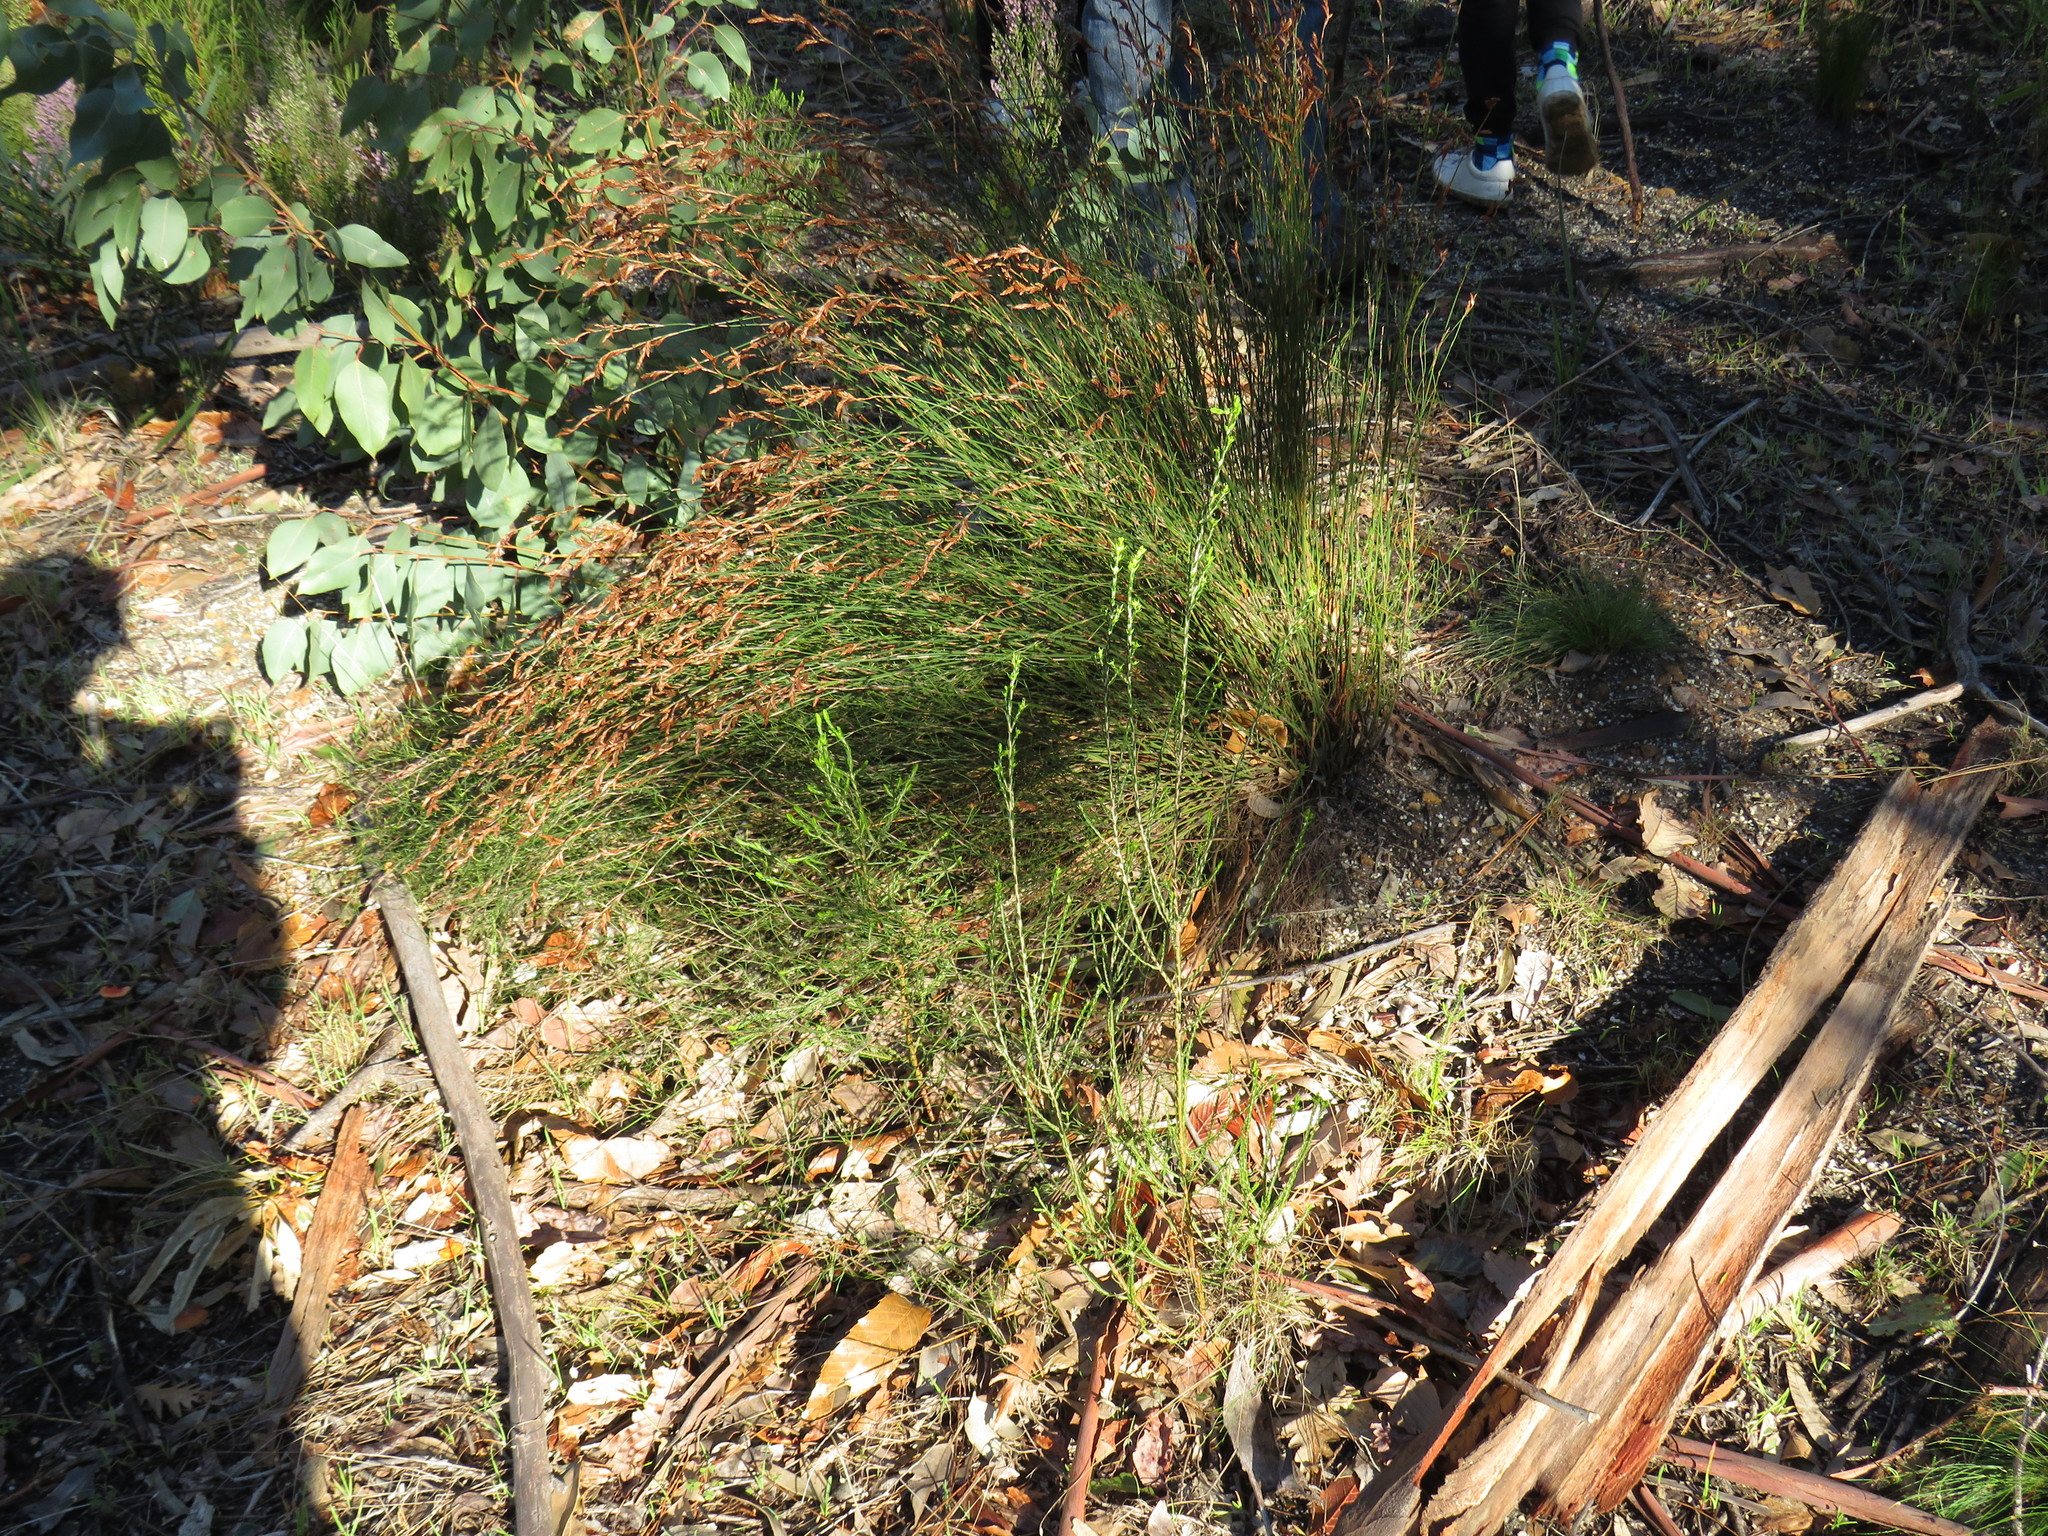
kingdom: Plantae
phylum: Tracheophyta
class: Liliopsida
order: Poales
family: Restionaceae
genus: Restio
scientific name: Restio triticeus
